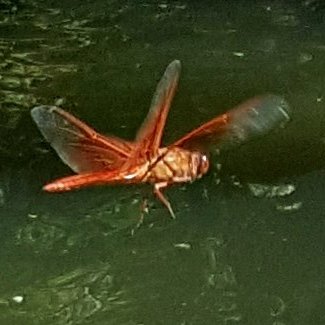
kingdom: Animalia
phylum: Arthropoda
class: Insecta
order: Odonata
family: Libellulidae
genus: Libellula
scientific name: Libellula saturata
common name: Flame skimmer
